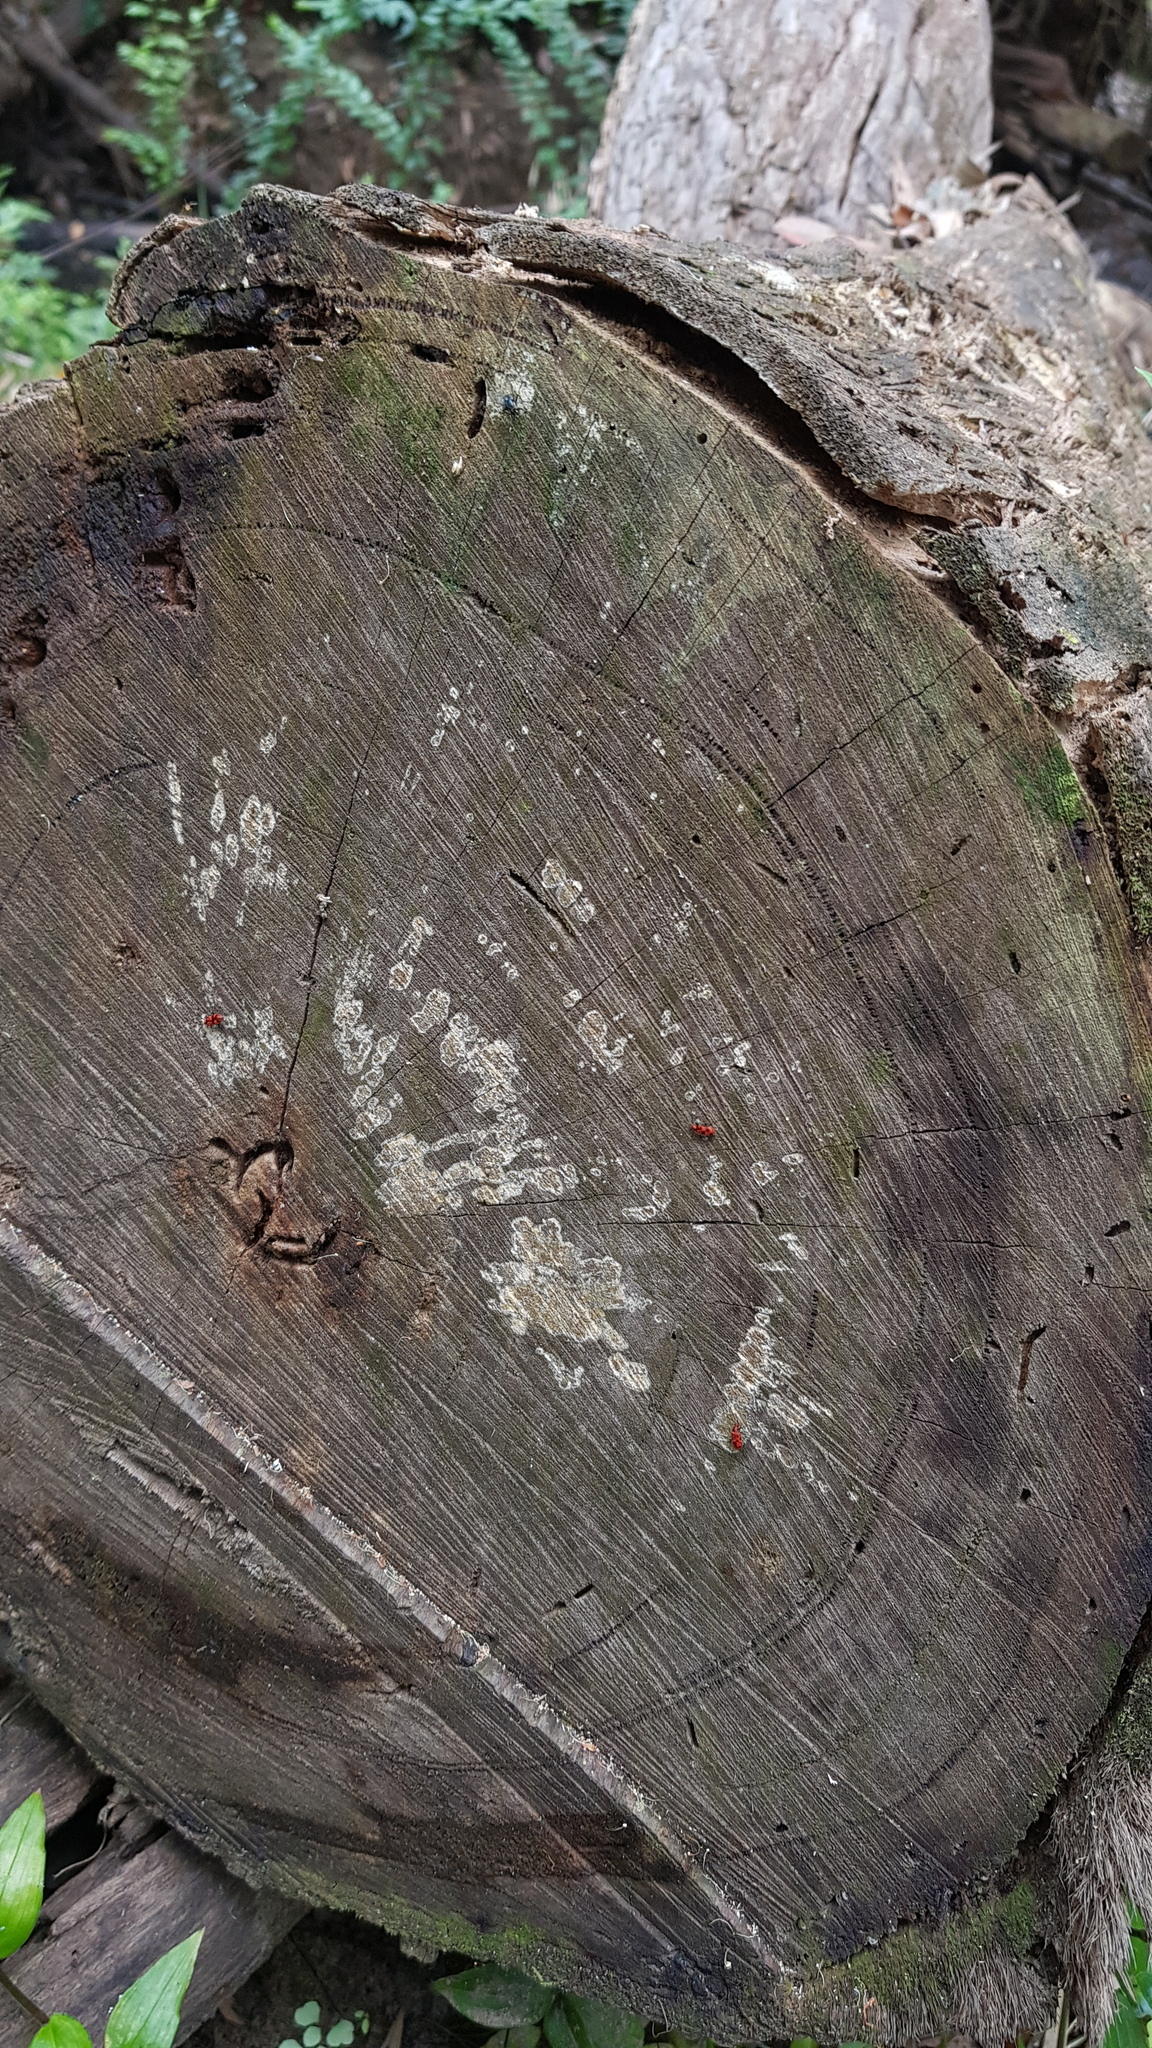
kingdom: Animalia
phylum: Arthropoda
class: Insecta
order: Coleoptera
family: Anthicidae
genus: Lemodes
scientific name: Lemodes
